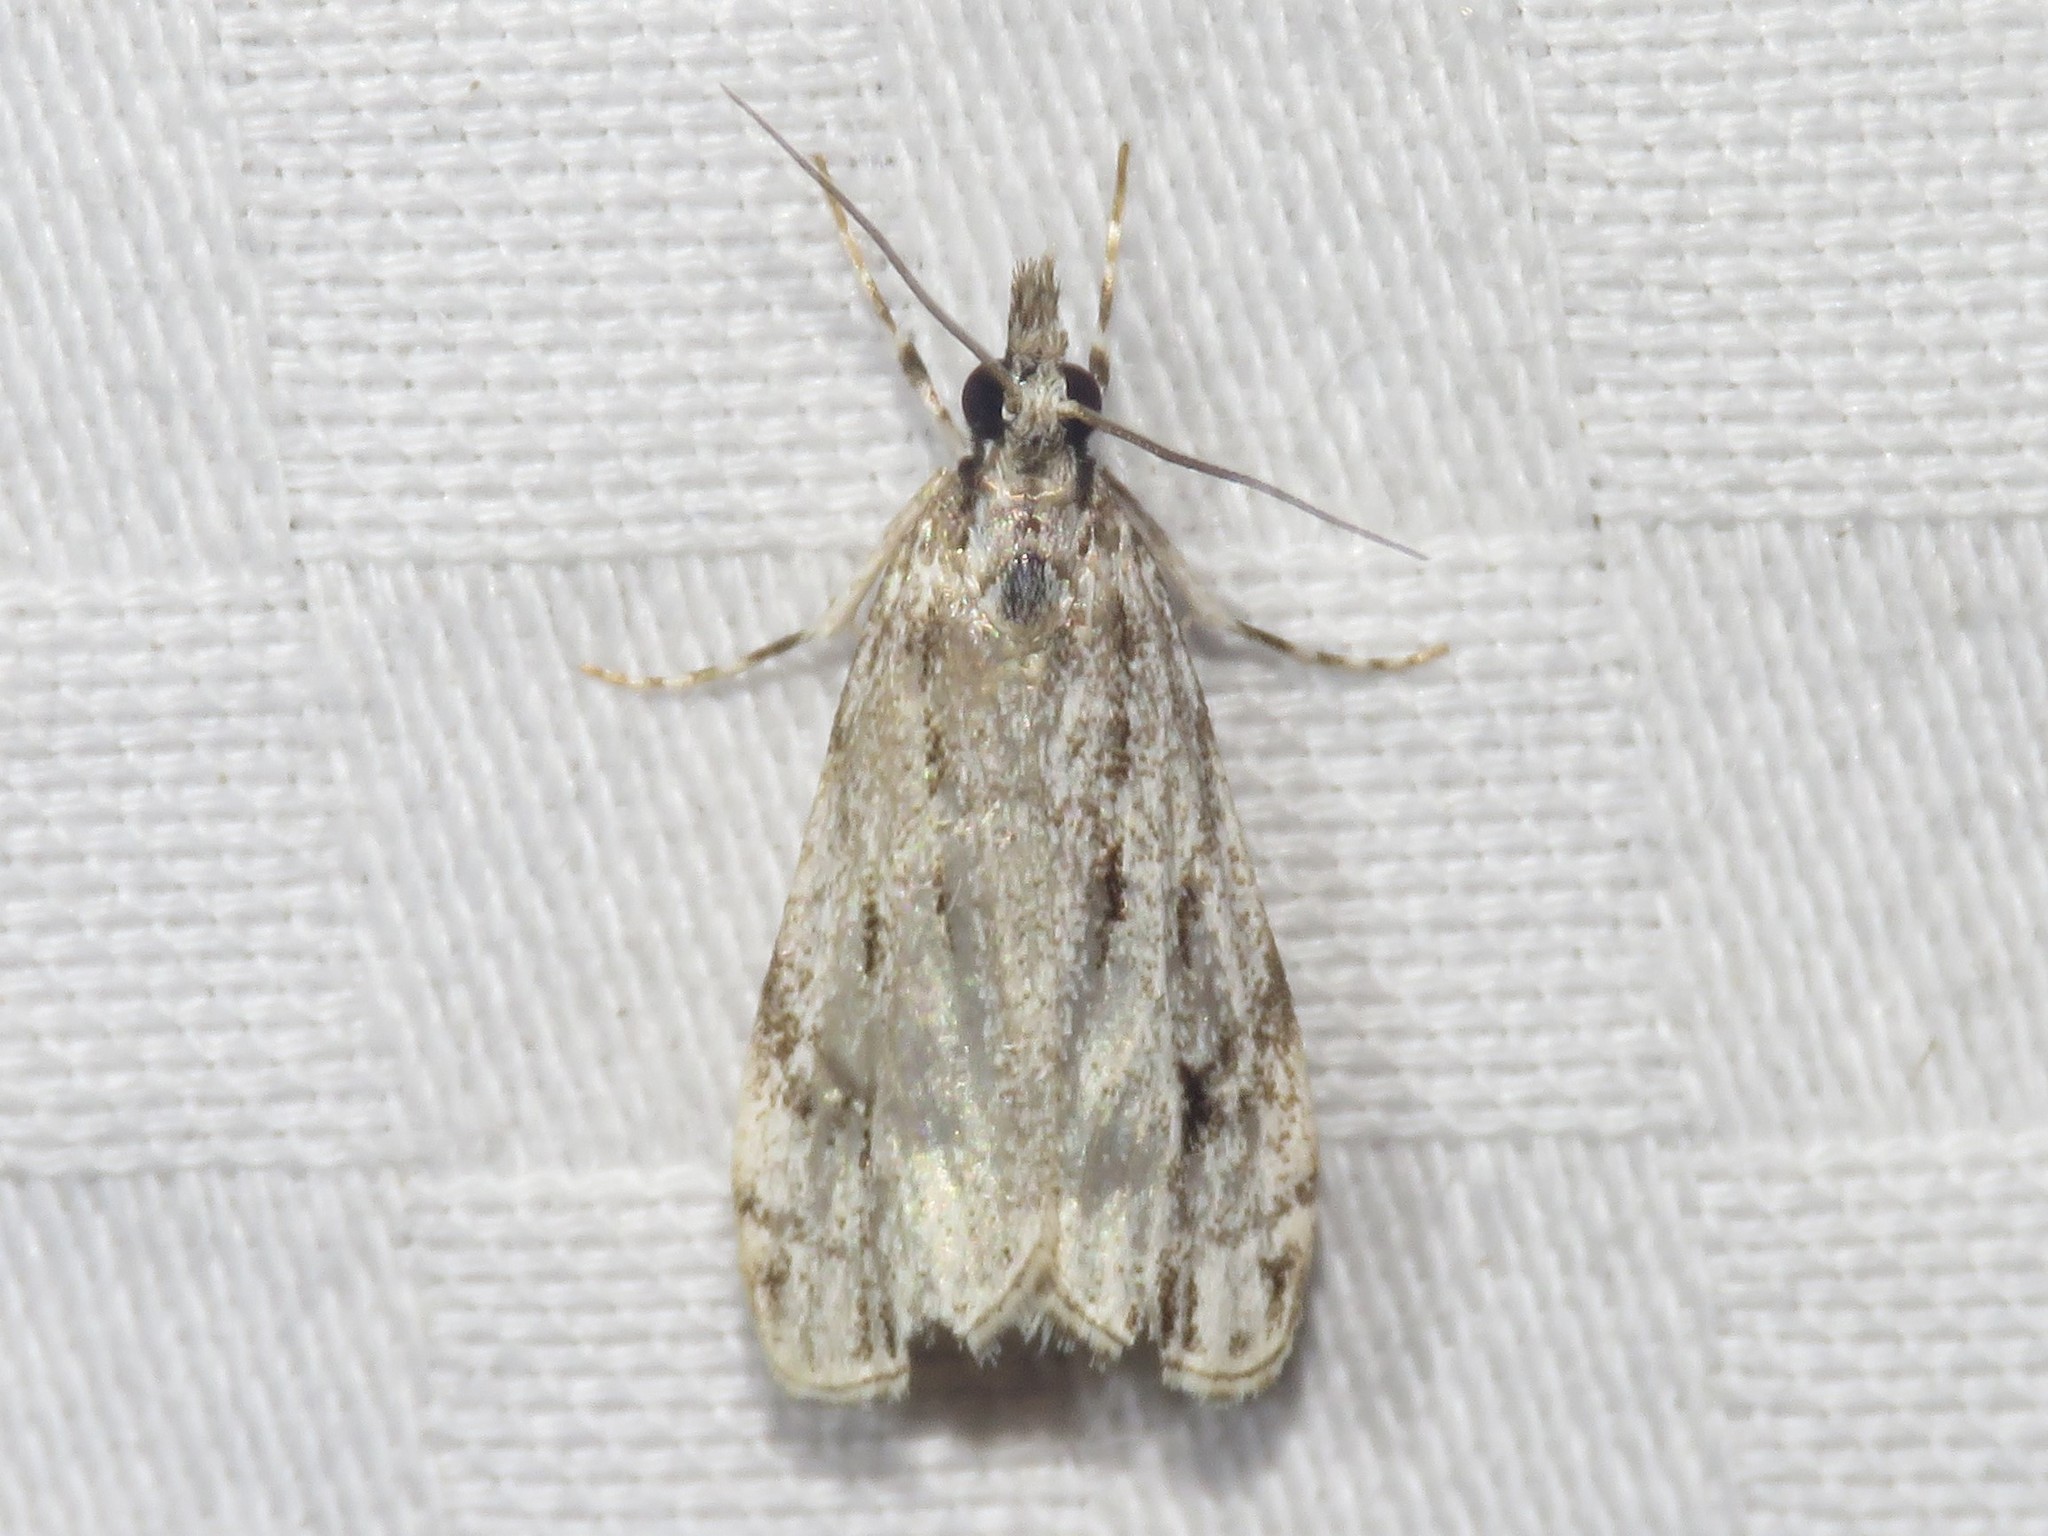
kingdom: Animalia
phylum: Arthropoda
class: Insecta
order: Lepidoptera
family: Crambidae
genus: Eudonia
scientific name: Eudonia strigalis
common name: Striped eudonia moth
